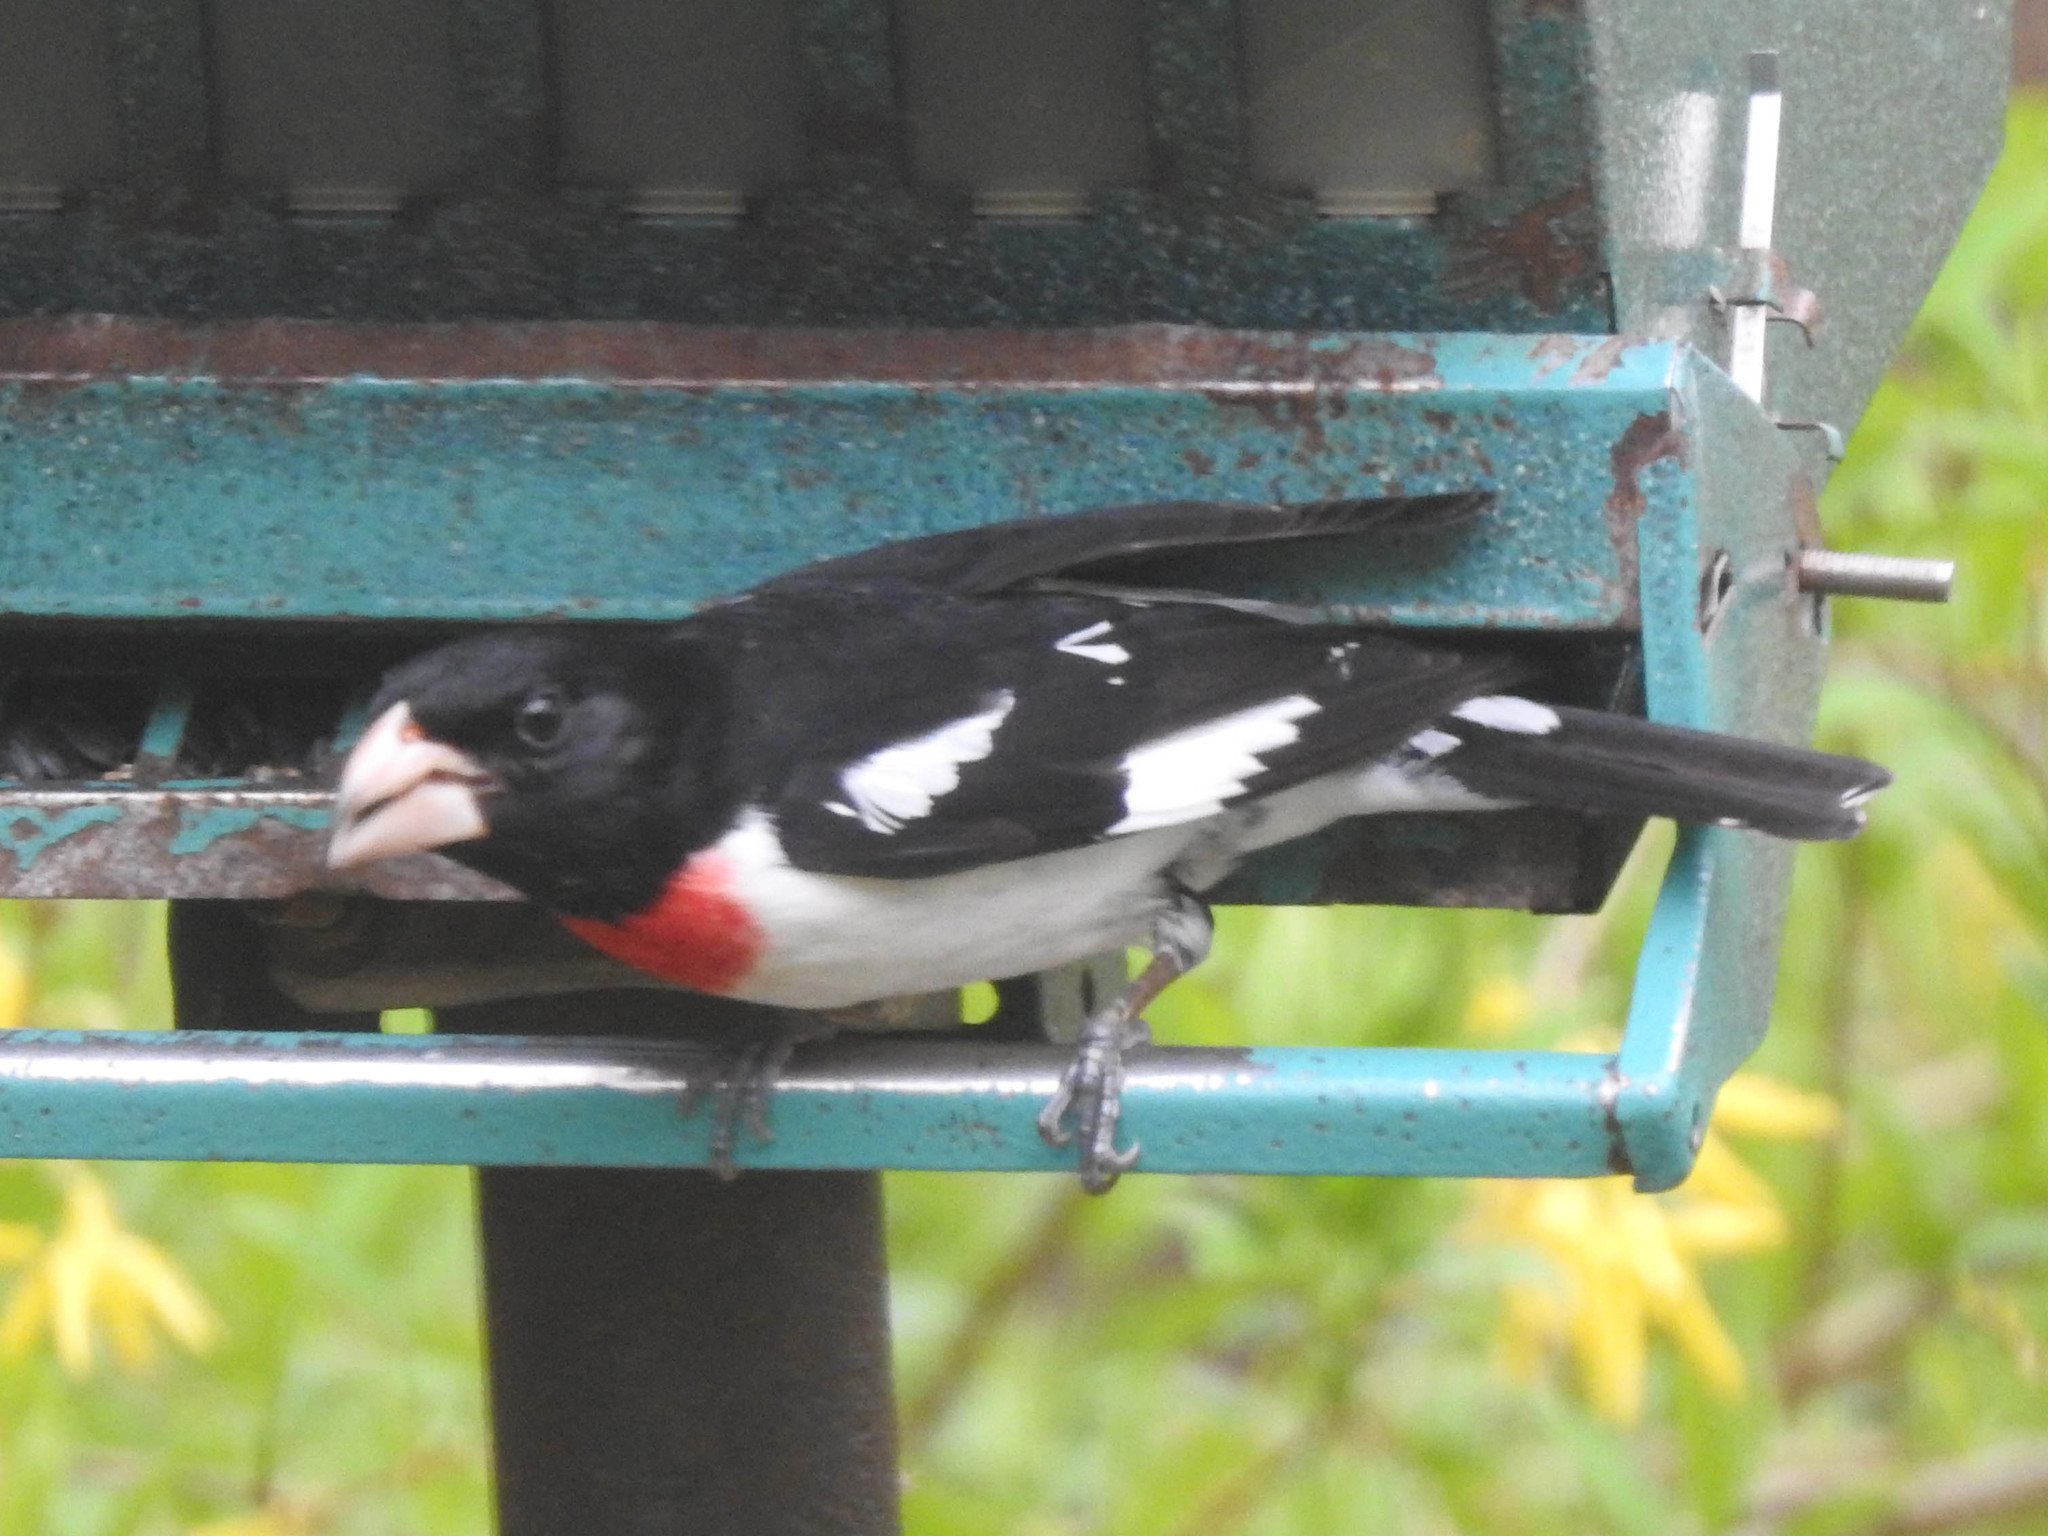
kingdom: Animalia
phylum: Chordata
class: Aves
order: Passeriformes
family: Cardinalidae
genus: Pheucticus
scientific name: Pheucticus ludovicianus
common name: Rose-breasted grosbeak
